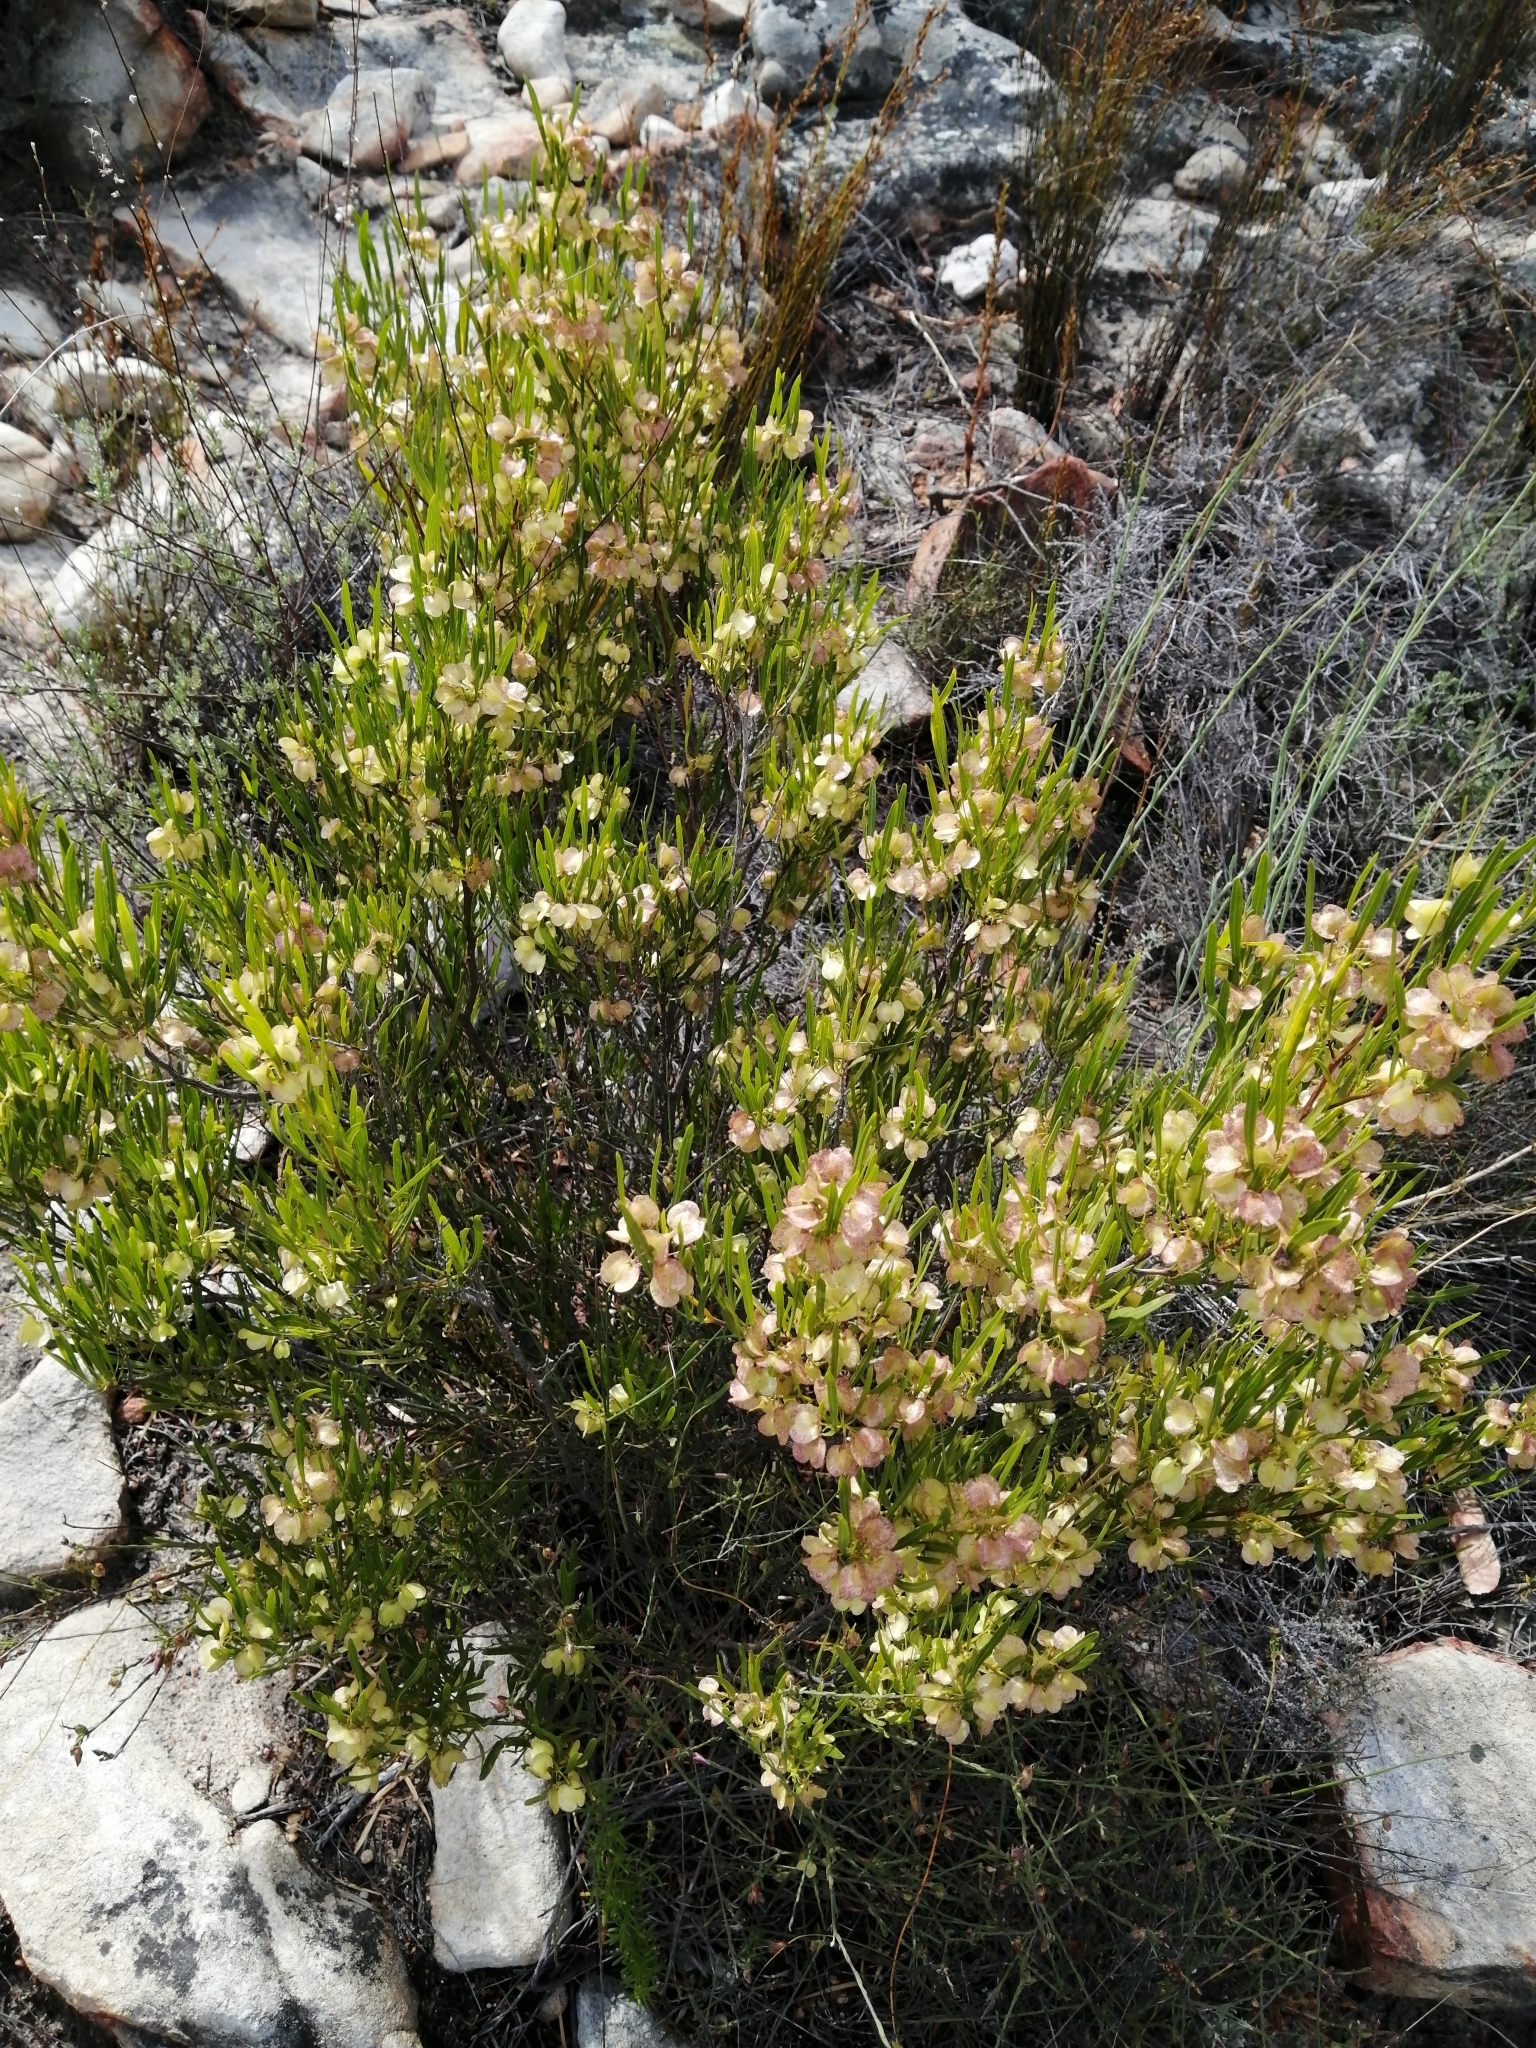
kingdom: Plantae
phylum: Tracheophyta
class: Magnoliopsida
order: Sapindales
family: Sapindaceae
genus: Dodonaea
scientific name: Dodonaea viscosa
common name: Hopbush
